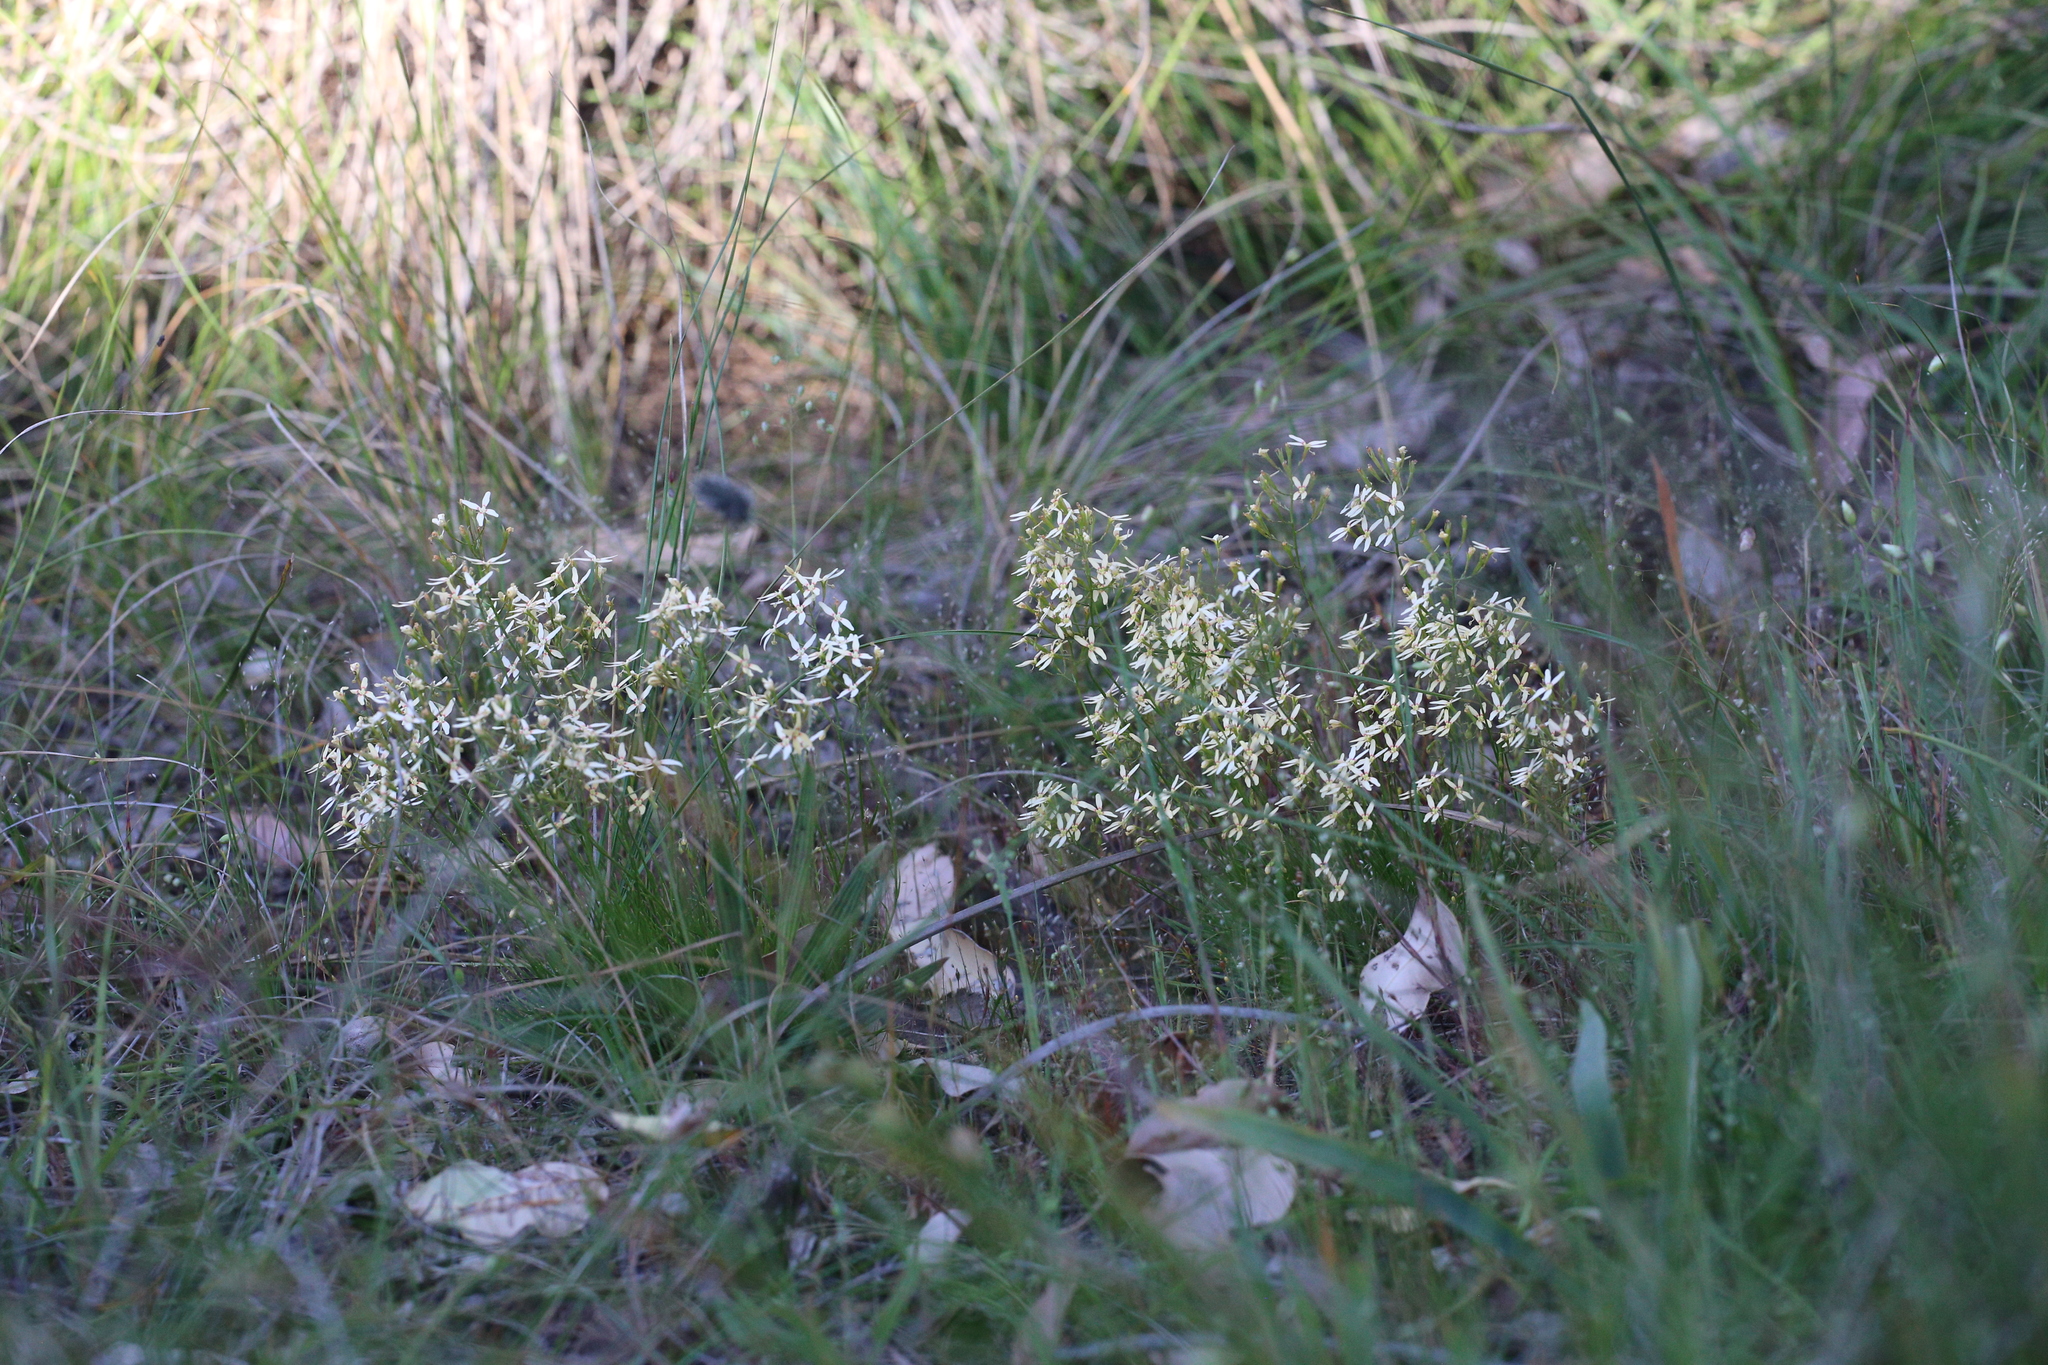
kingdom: Plantae
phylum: Tracheophyta
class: Magnoliopsida
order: Asterales
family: Stylidiaceae
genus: Stylidium
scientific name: Stylidium thesioides
